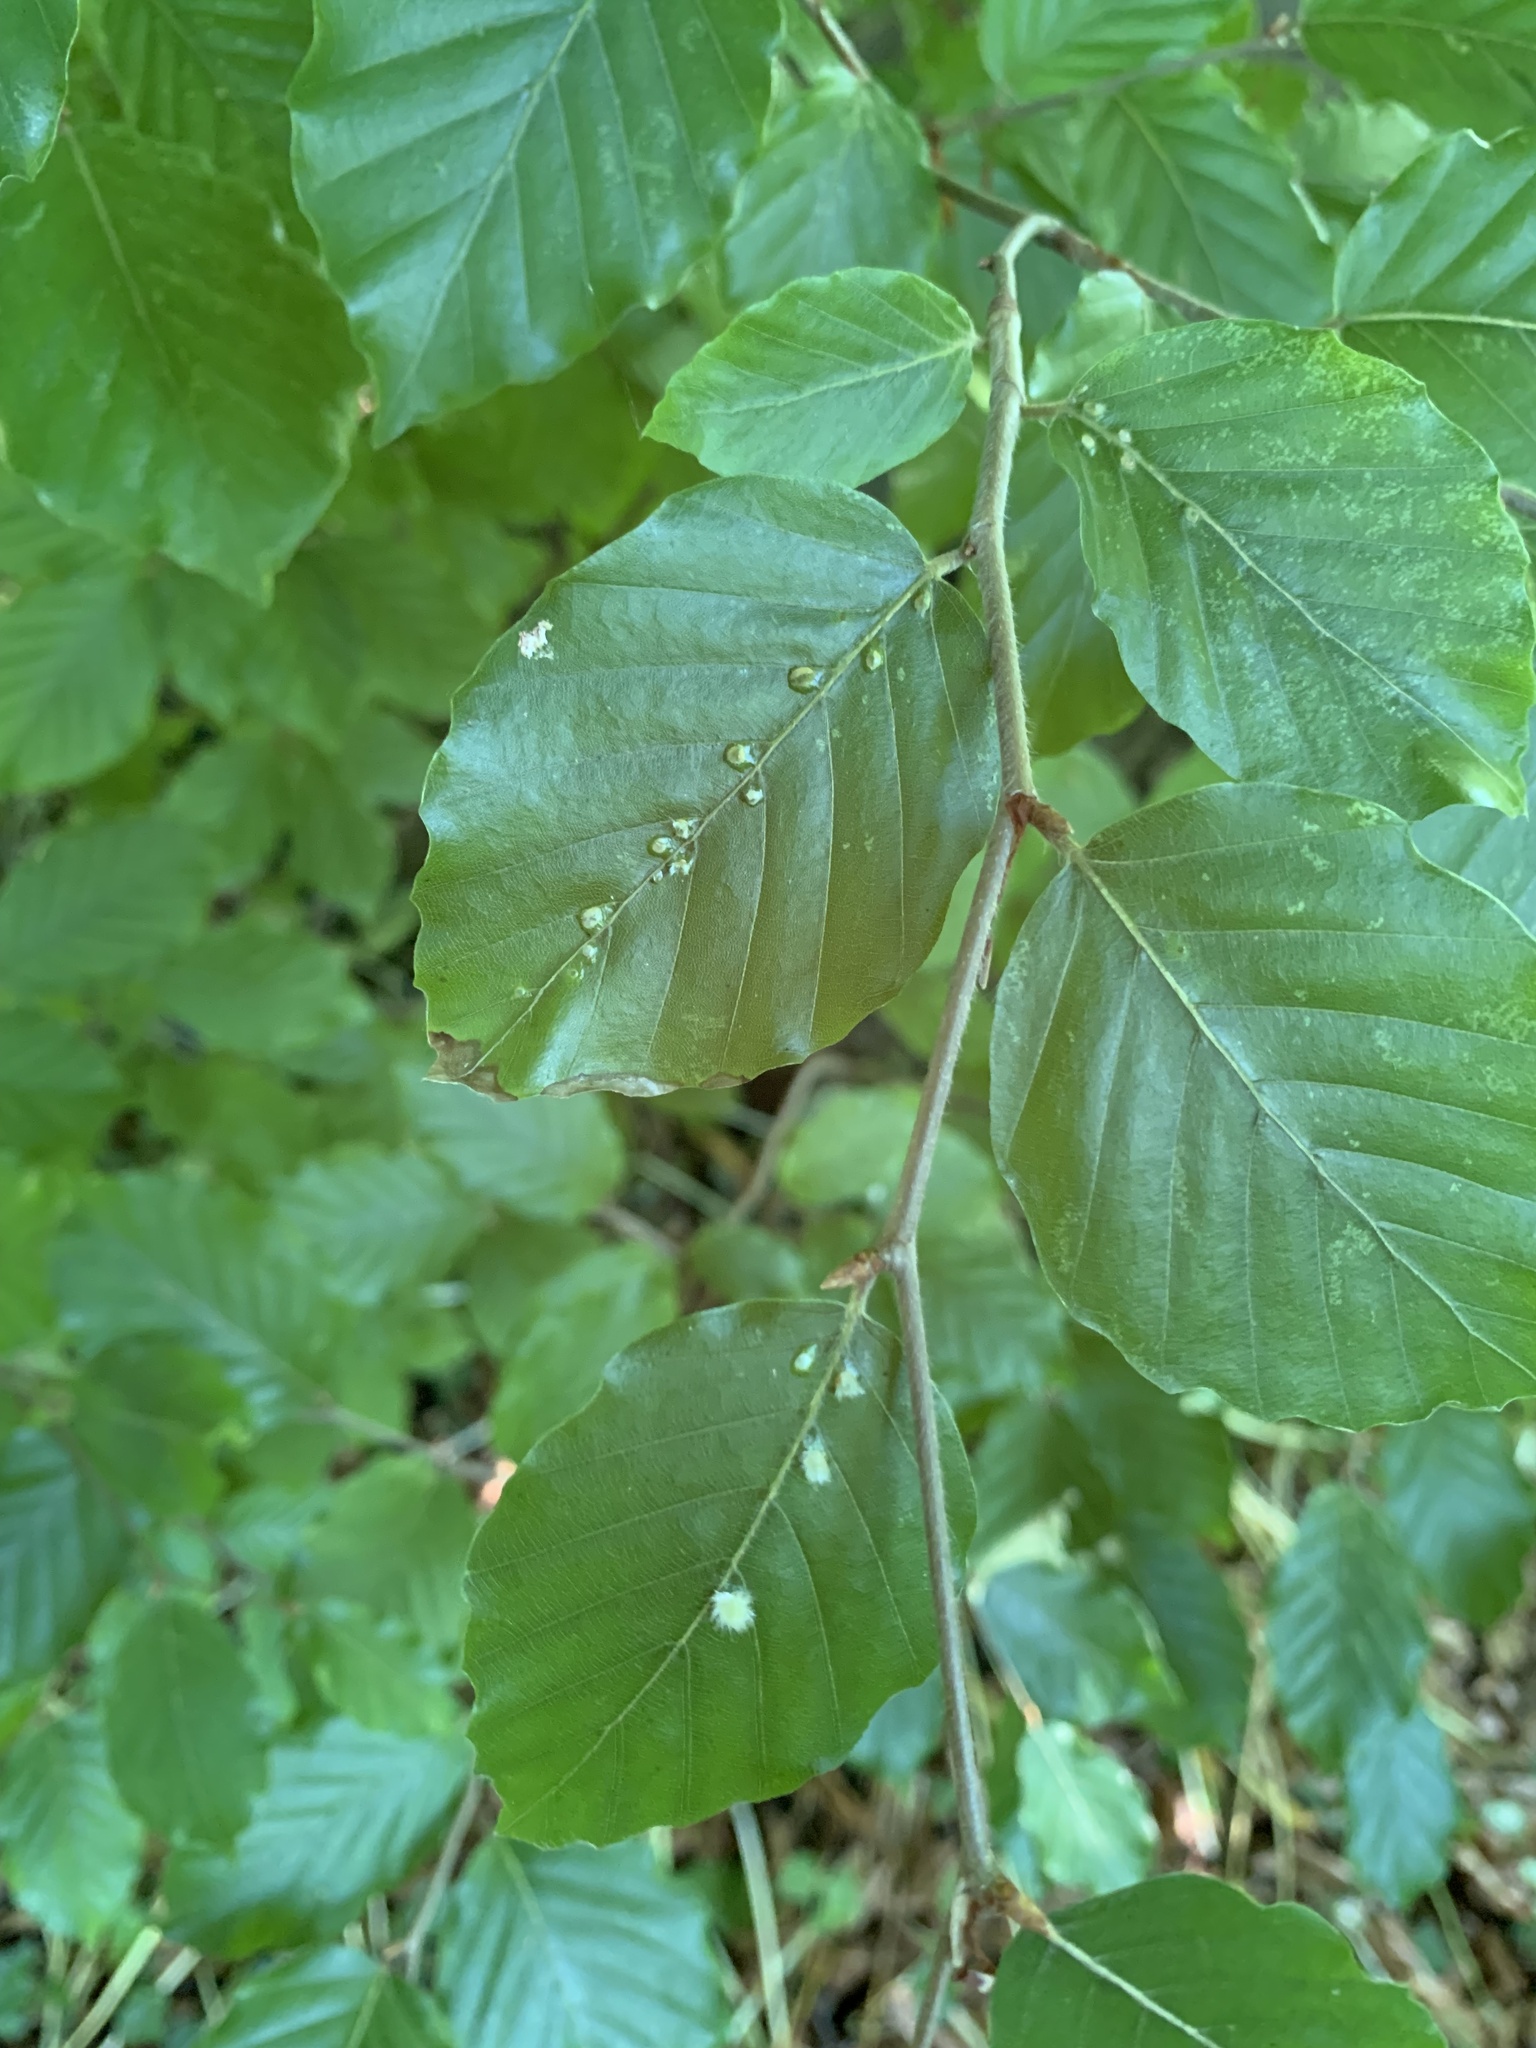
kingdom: Animalia
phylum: Arthropoda
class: Insecta
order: Diptera
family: Cecidomyiidae
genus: Hartigiola
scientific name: Hartigiola annulipes
